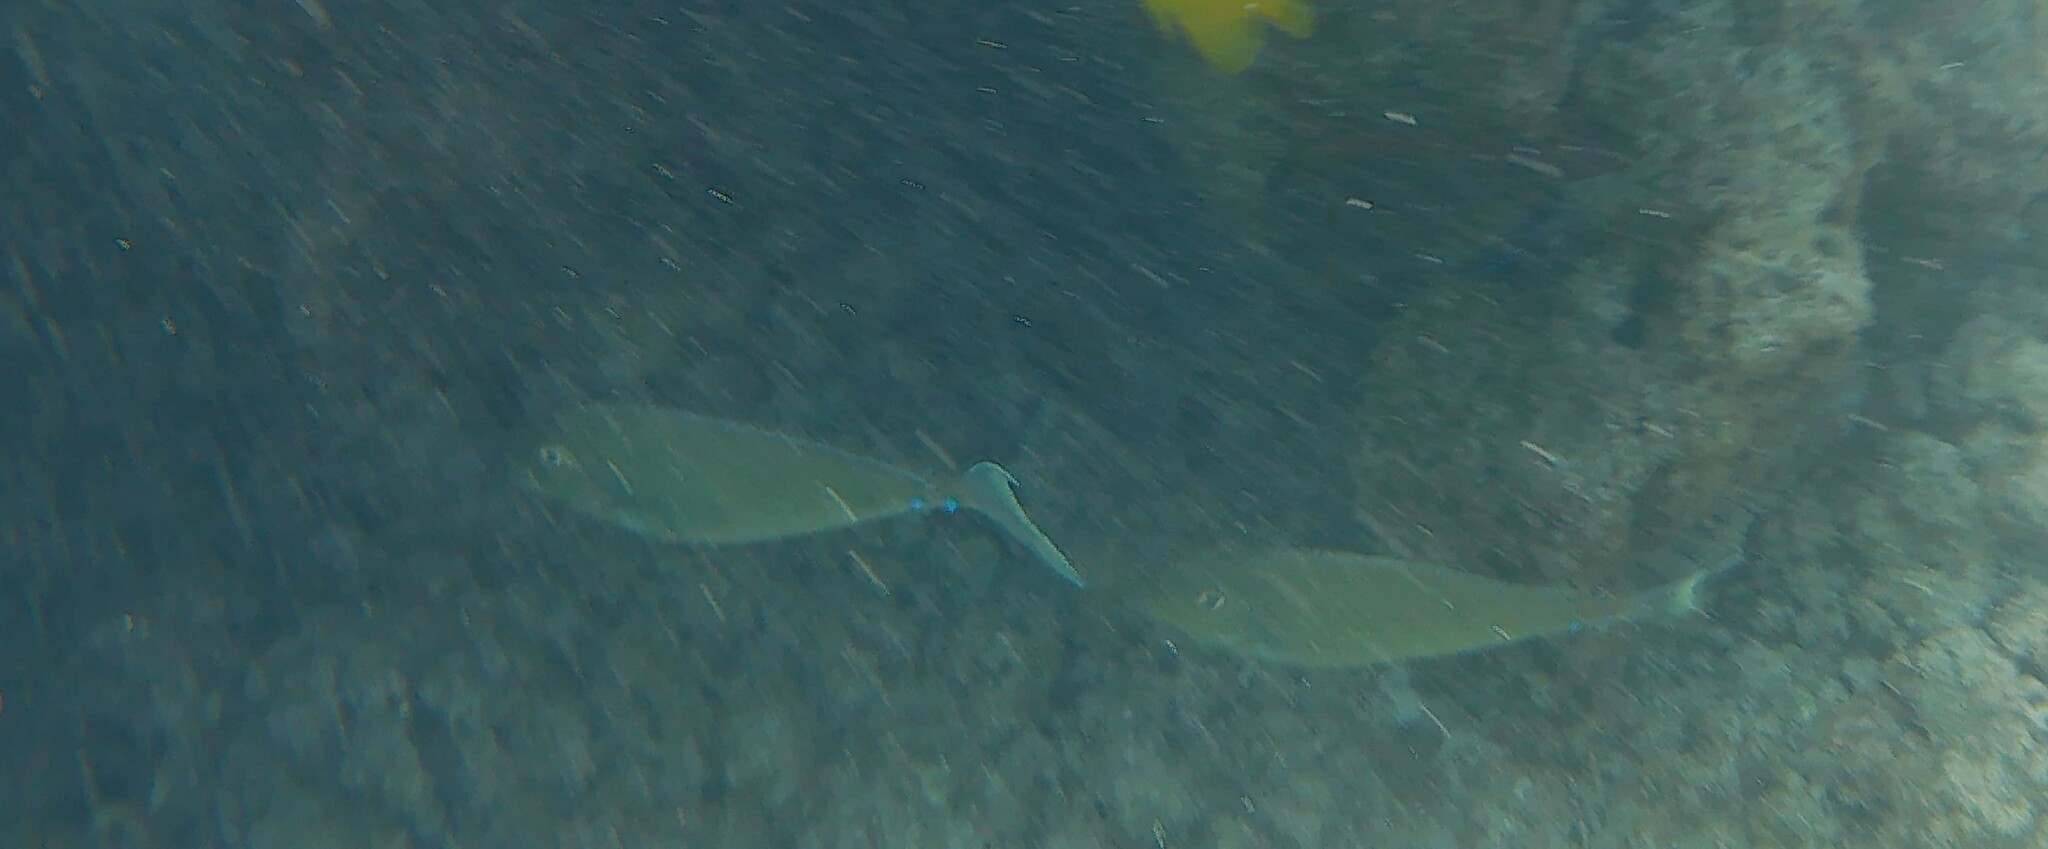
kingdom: Animalia
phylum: Chordata
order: Perciformes
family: Acanthuridae
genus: Naso
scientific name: Naso unicornis
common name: Bluespine unicornfish
